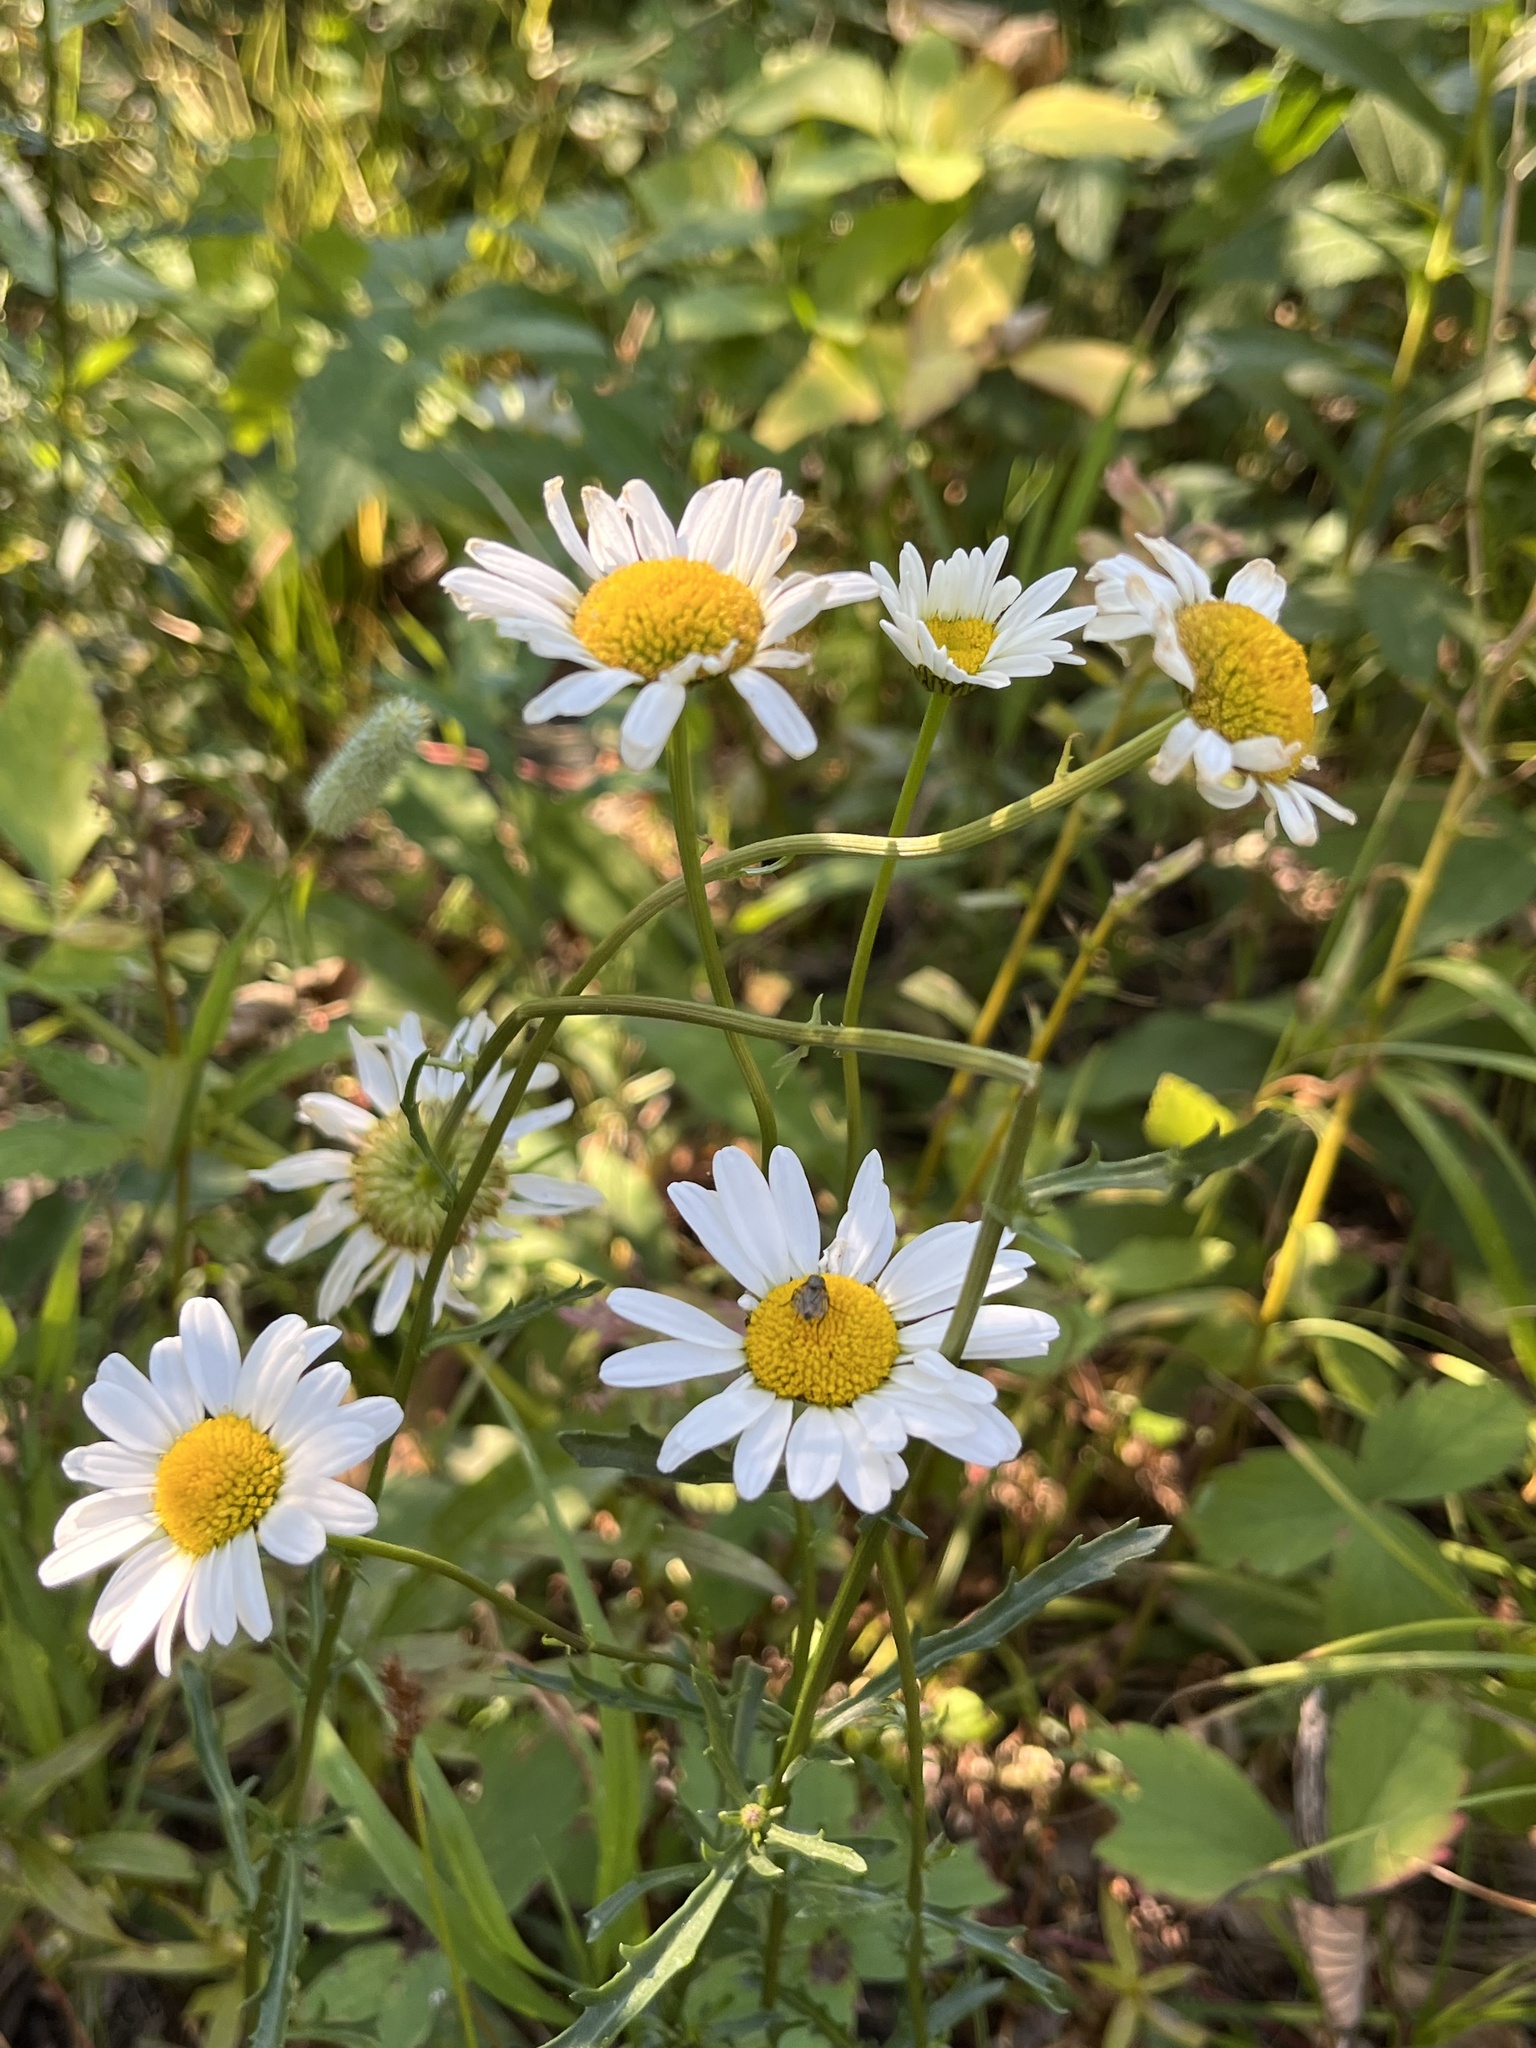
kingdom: Plantae
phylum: Tracheophyta
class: Magnoliopsida
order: Asterales
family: Asteraceae
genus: Leucanthemum
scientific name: Leucanthemum vulgare
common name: Oxeye daisy
